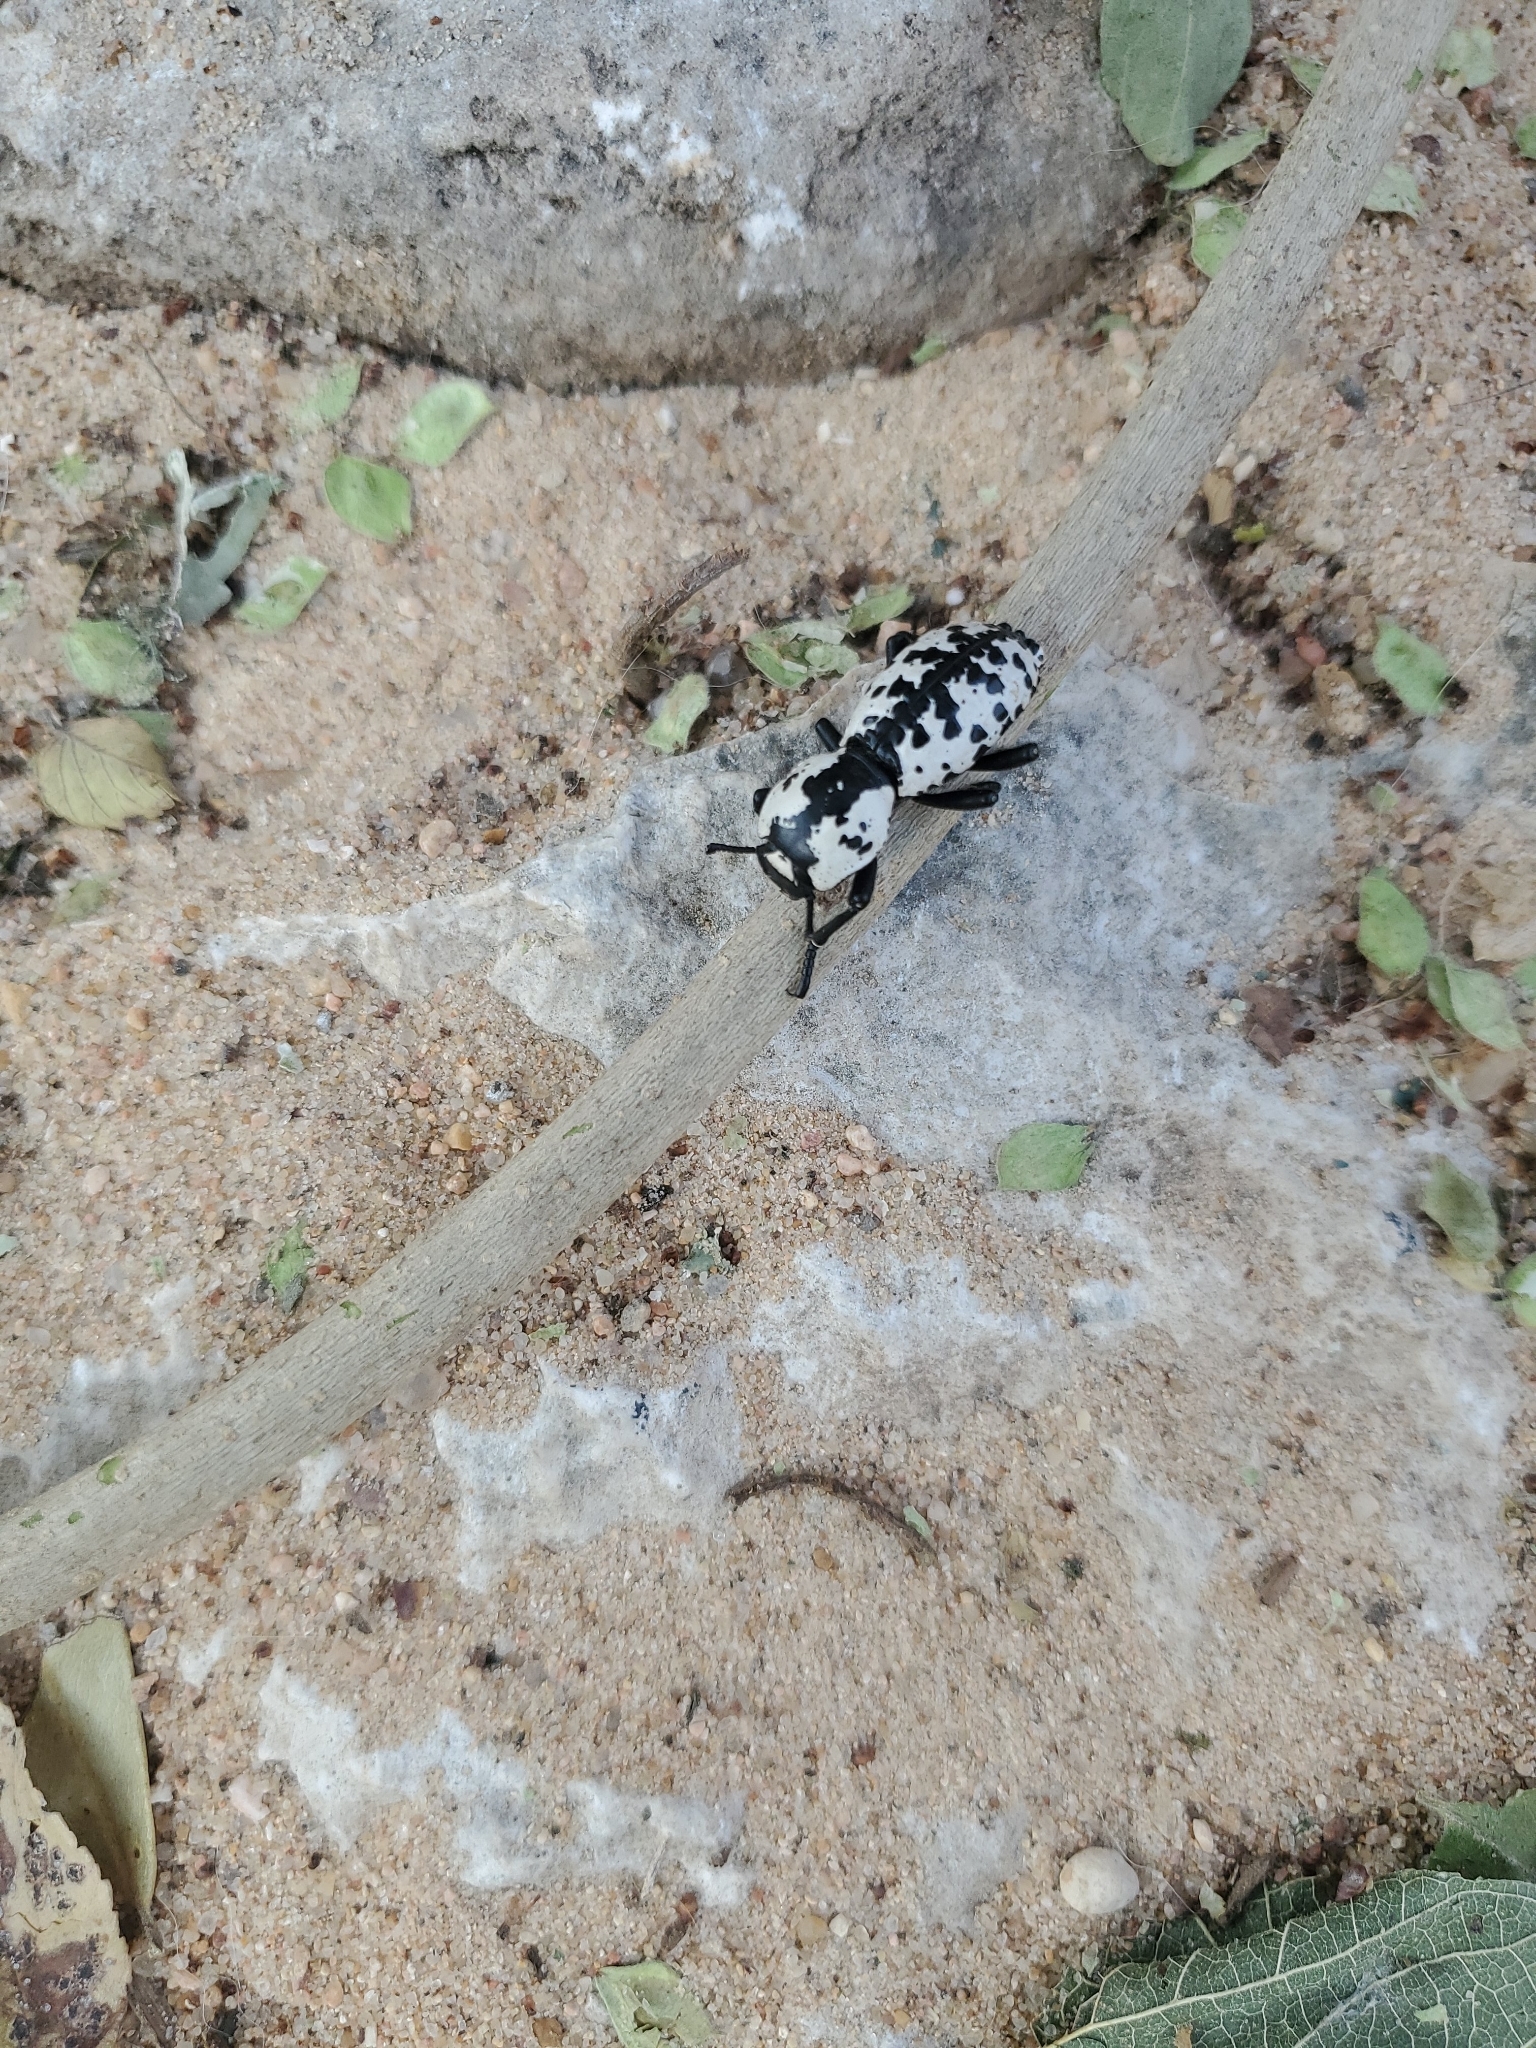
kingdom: Animalia
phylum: Arthropoda
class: Insecta
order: Coleoptera
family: Zopheridae
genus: Zopherus
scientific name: Zopherus nodulosus
